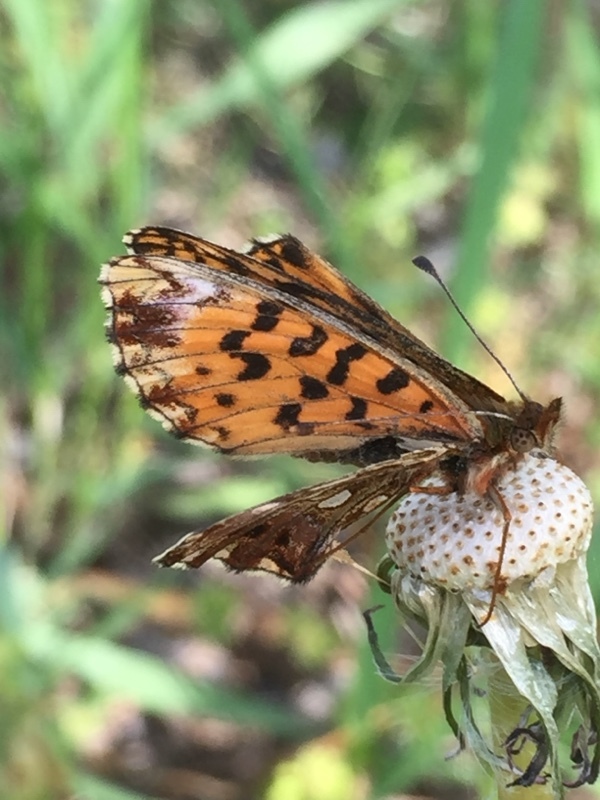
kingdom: Animalia
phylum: Arthropoda
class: Insecta
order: Lepidoptera
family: Nymphalidae
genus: Boloria
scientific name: Boloria dia
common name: Weaver's fritillary
